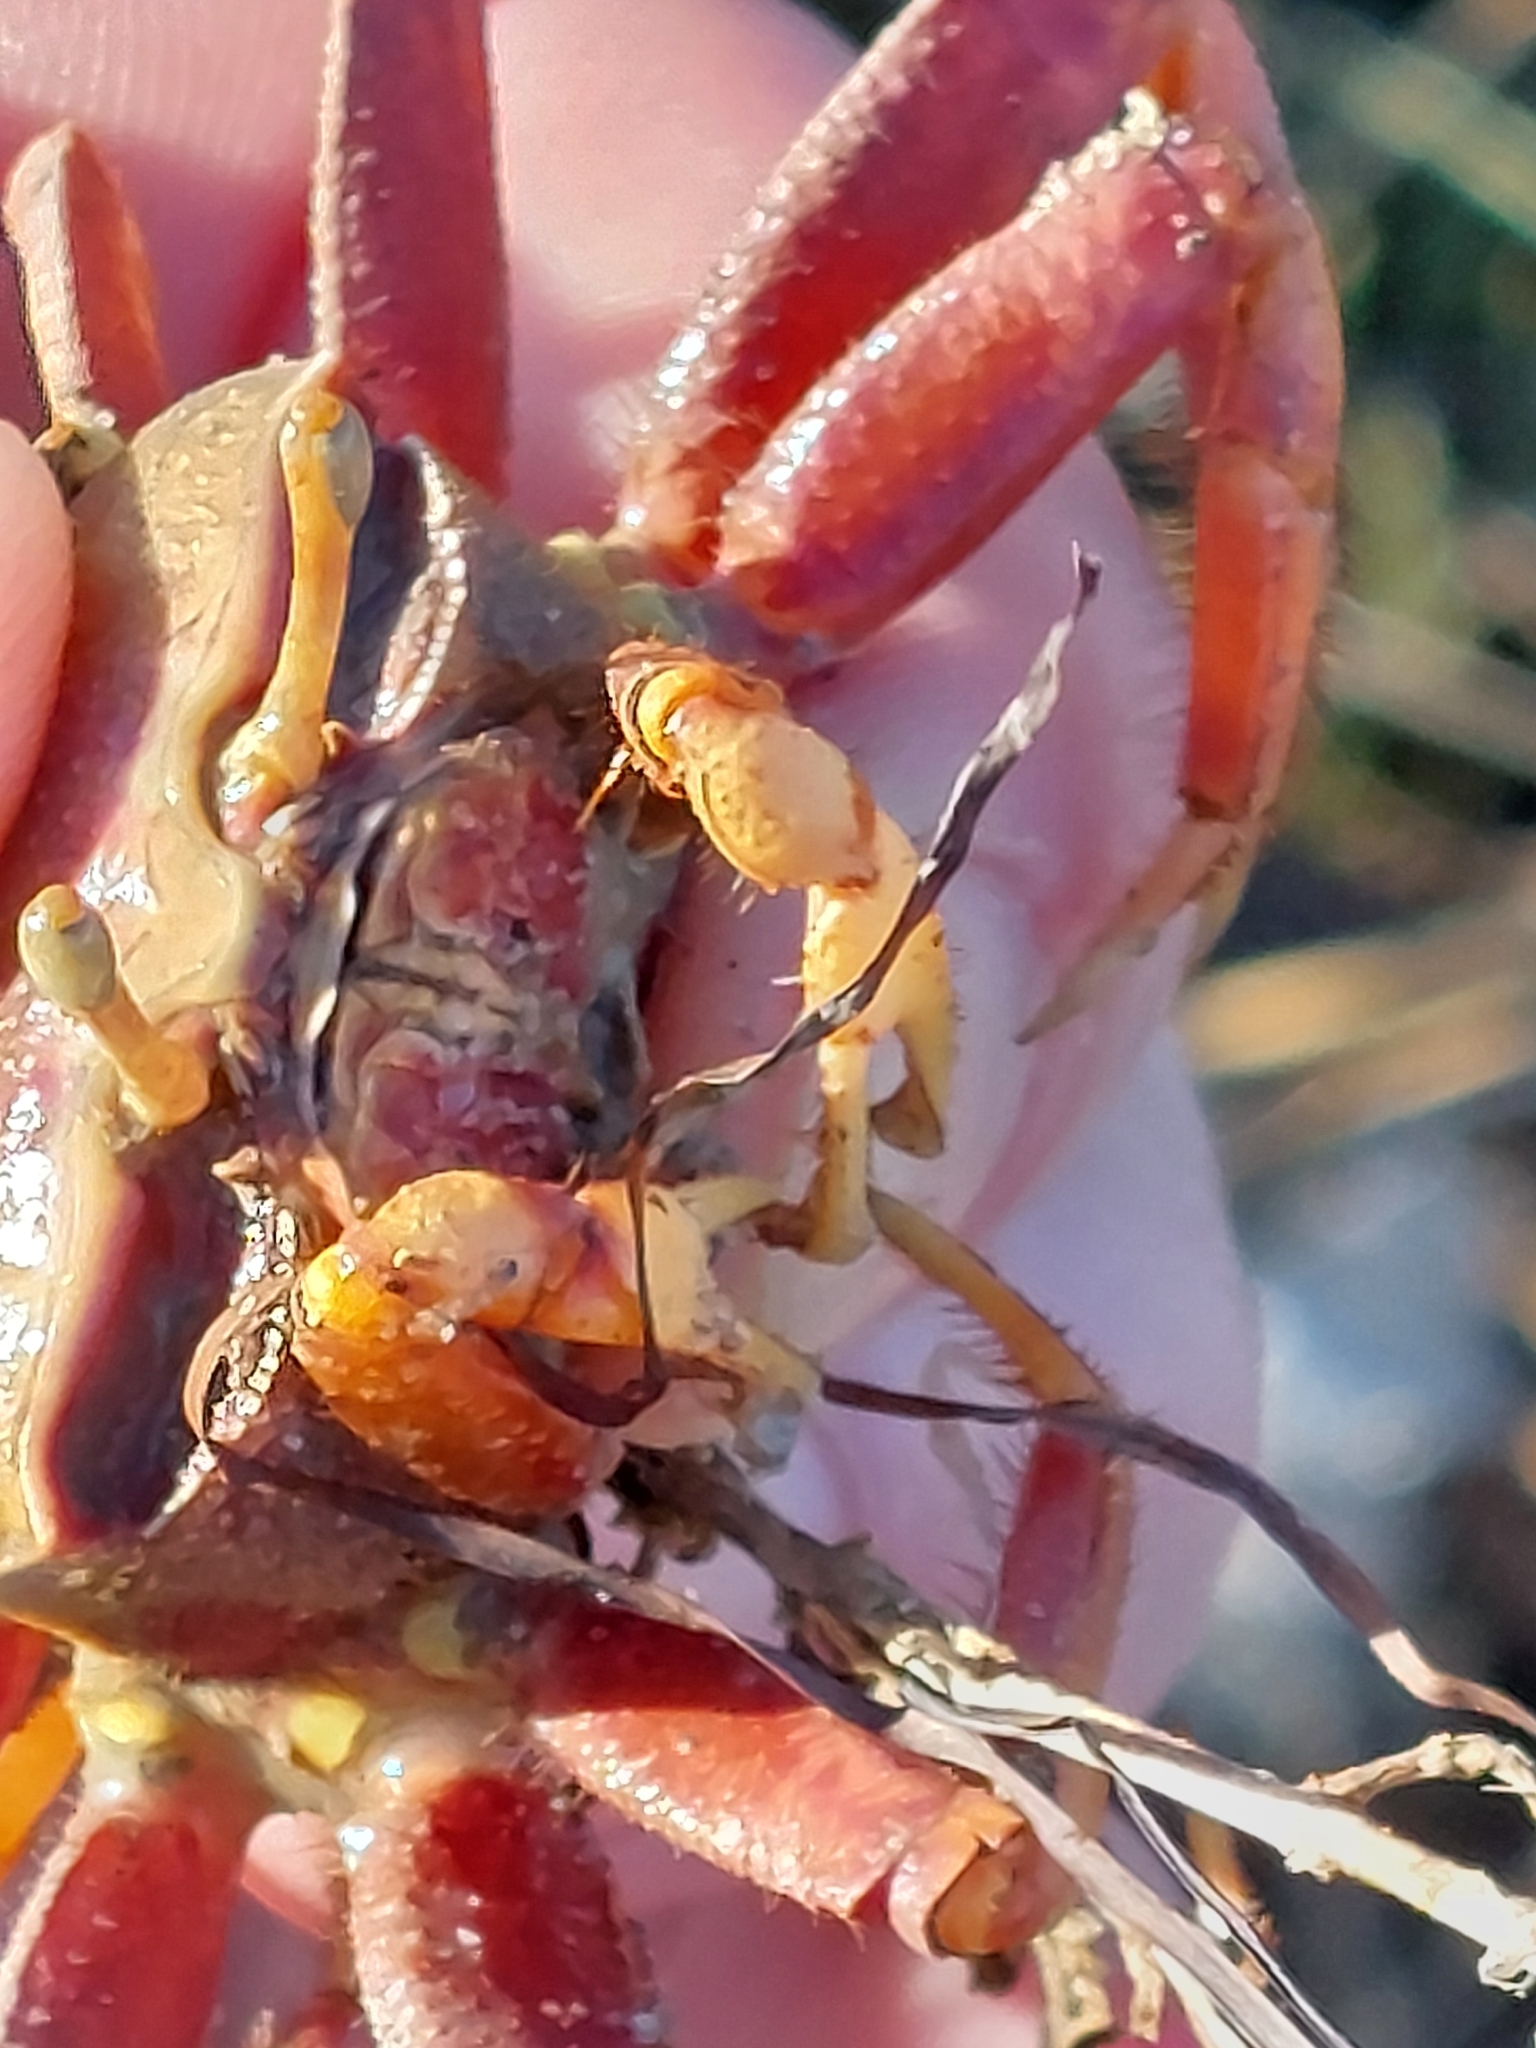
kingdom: Animalia
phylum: Arthropoda
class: Malacostraca
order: Decapoda
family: Ocypodidae
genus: Afruca
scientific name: Afruca tangeri
